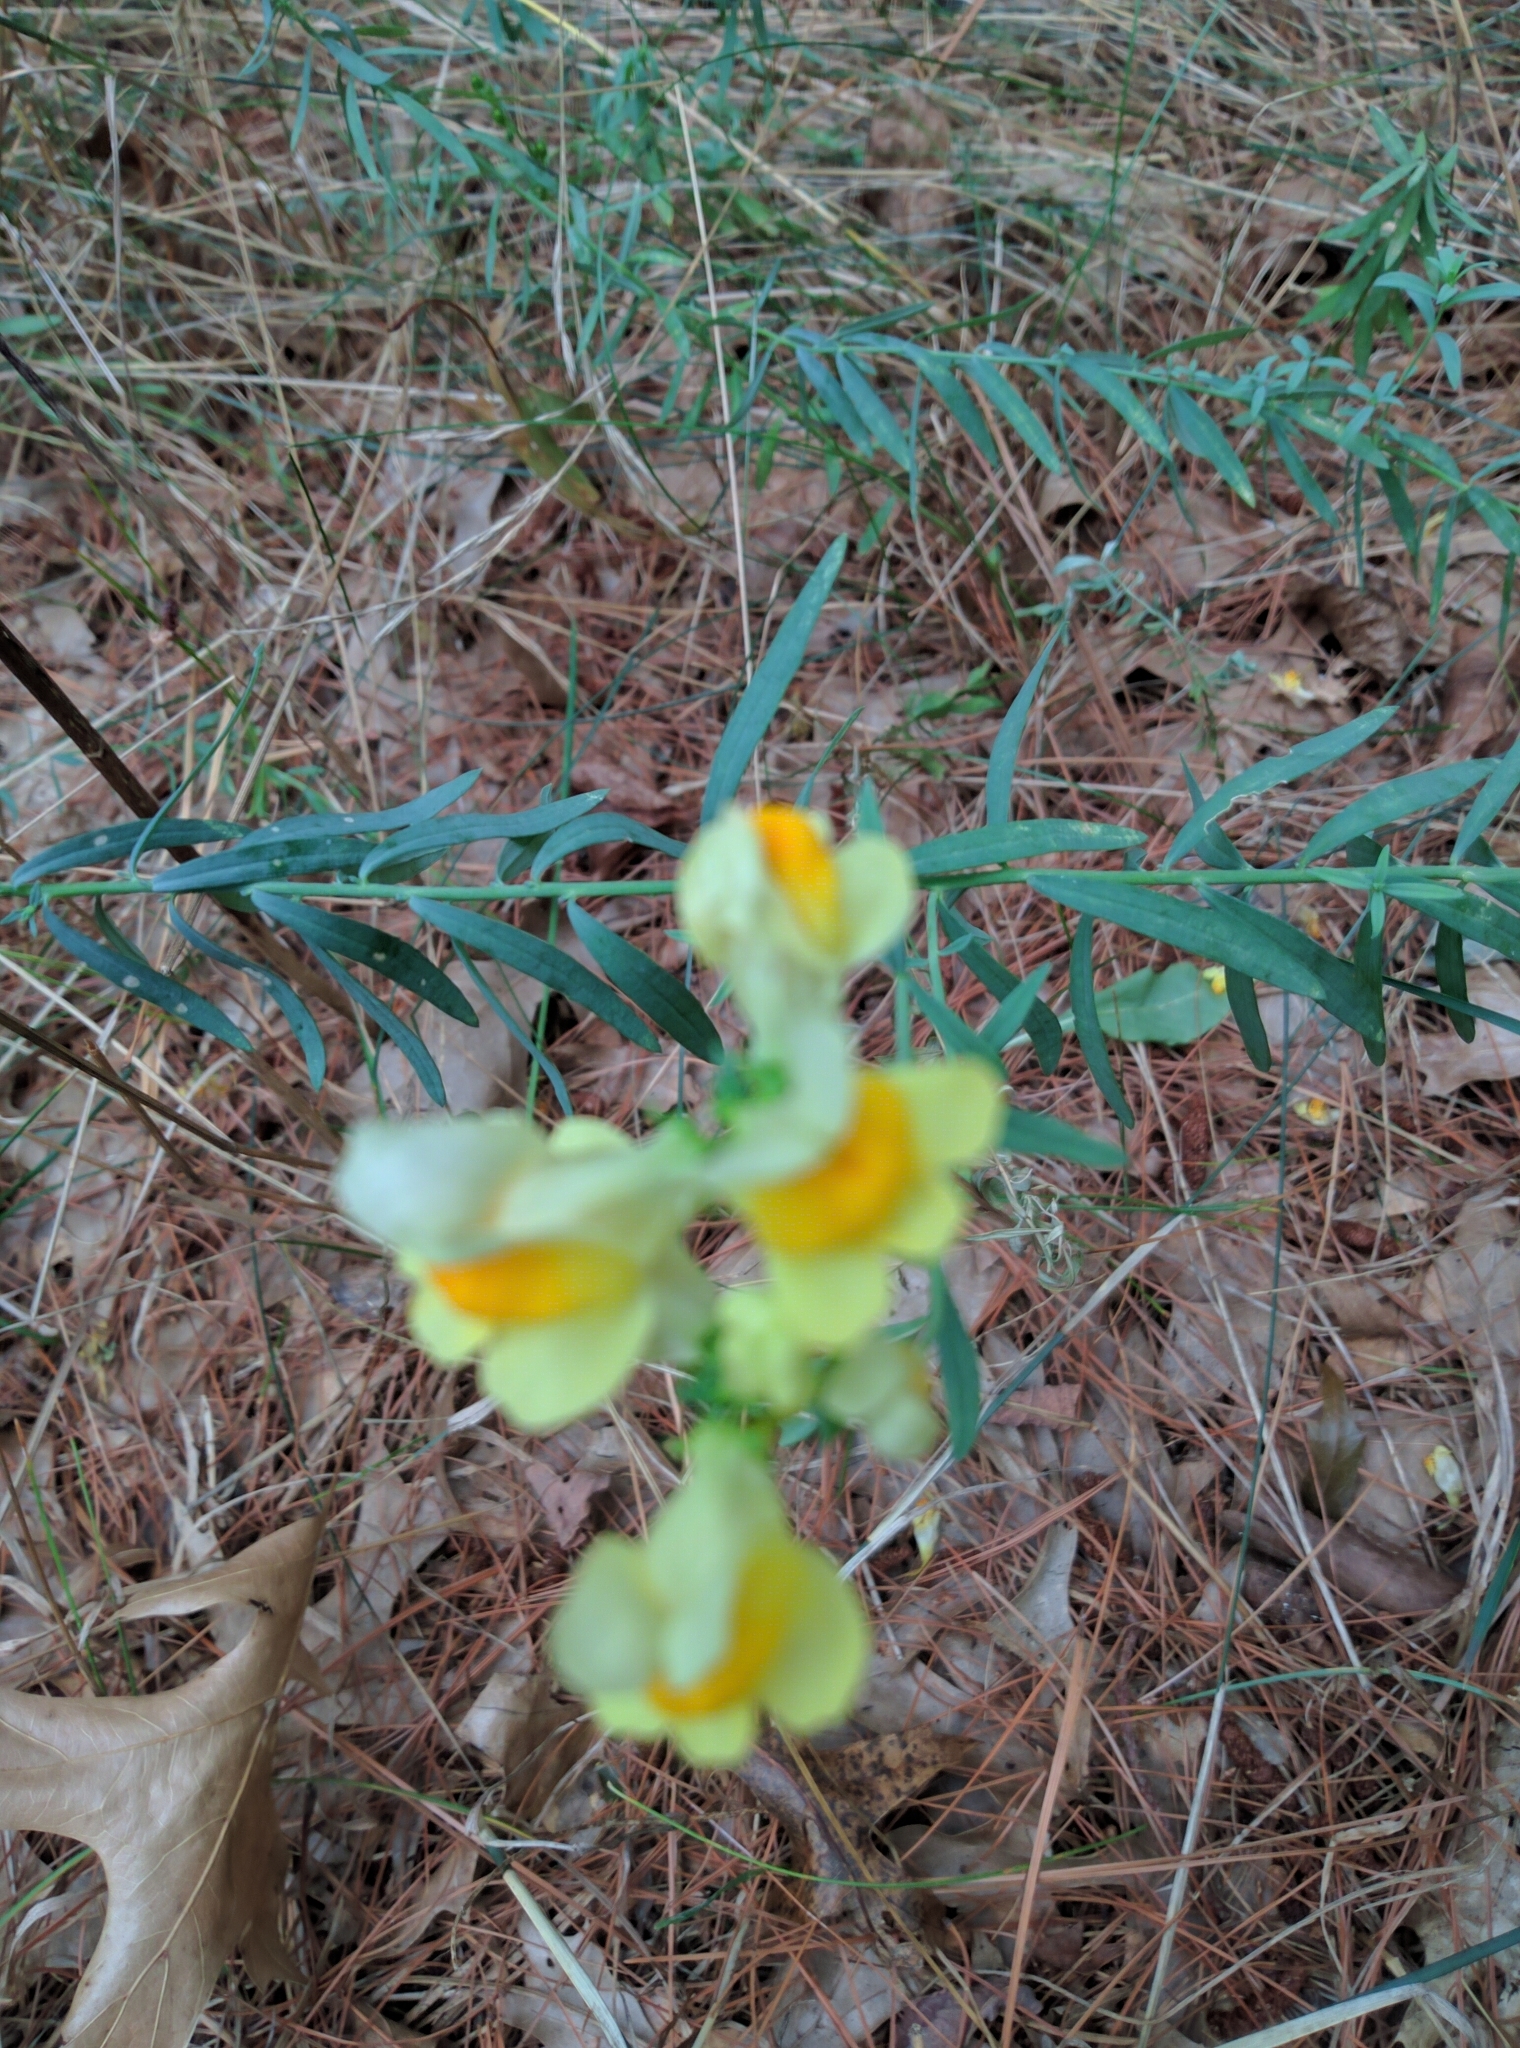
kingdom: Plantae
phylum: Tracheophyta
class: Magnoliopsida
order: Lamiales
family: Plantaginaceae
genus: Linaria
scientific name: Linaria vulgaris
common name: Butter and eggs
